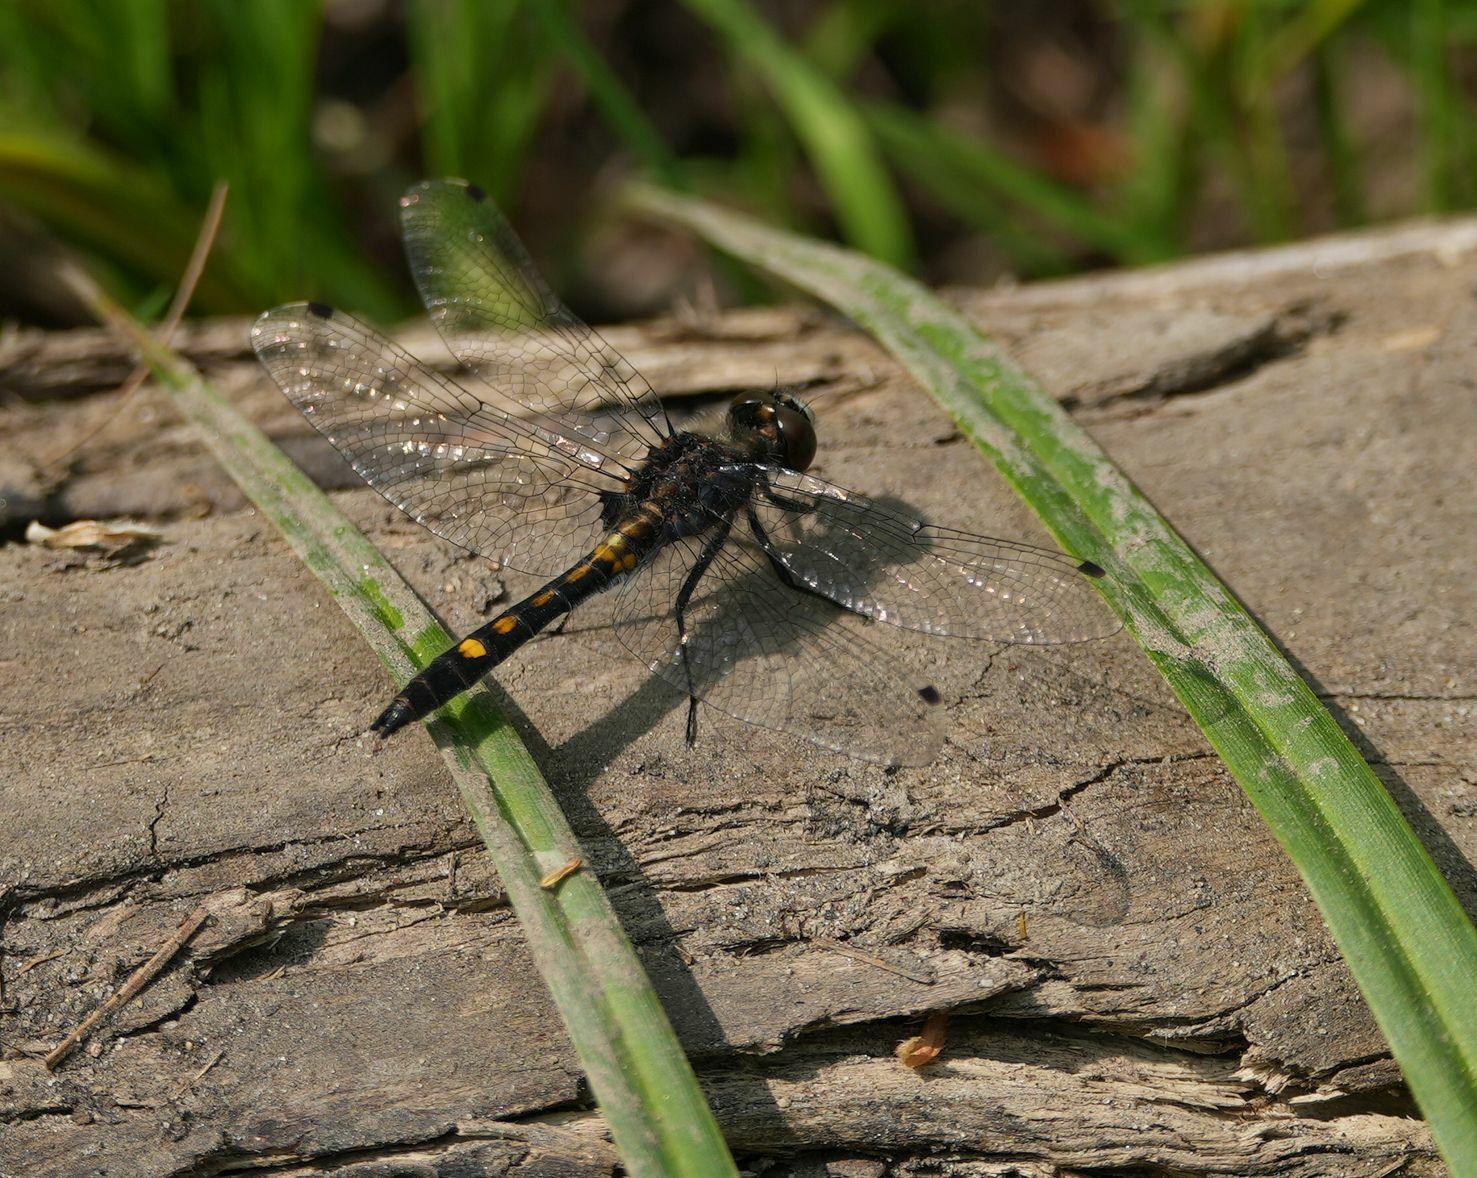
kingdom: Animalia
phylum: Arthropoda
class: Insecta
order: Odonata
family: Libellulidae
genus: Leucorrhinia
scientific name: Leucorrhinia intacta
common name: Dot-tailed whiteface
